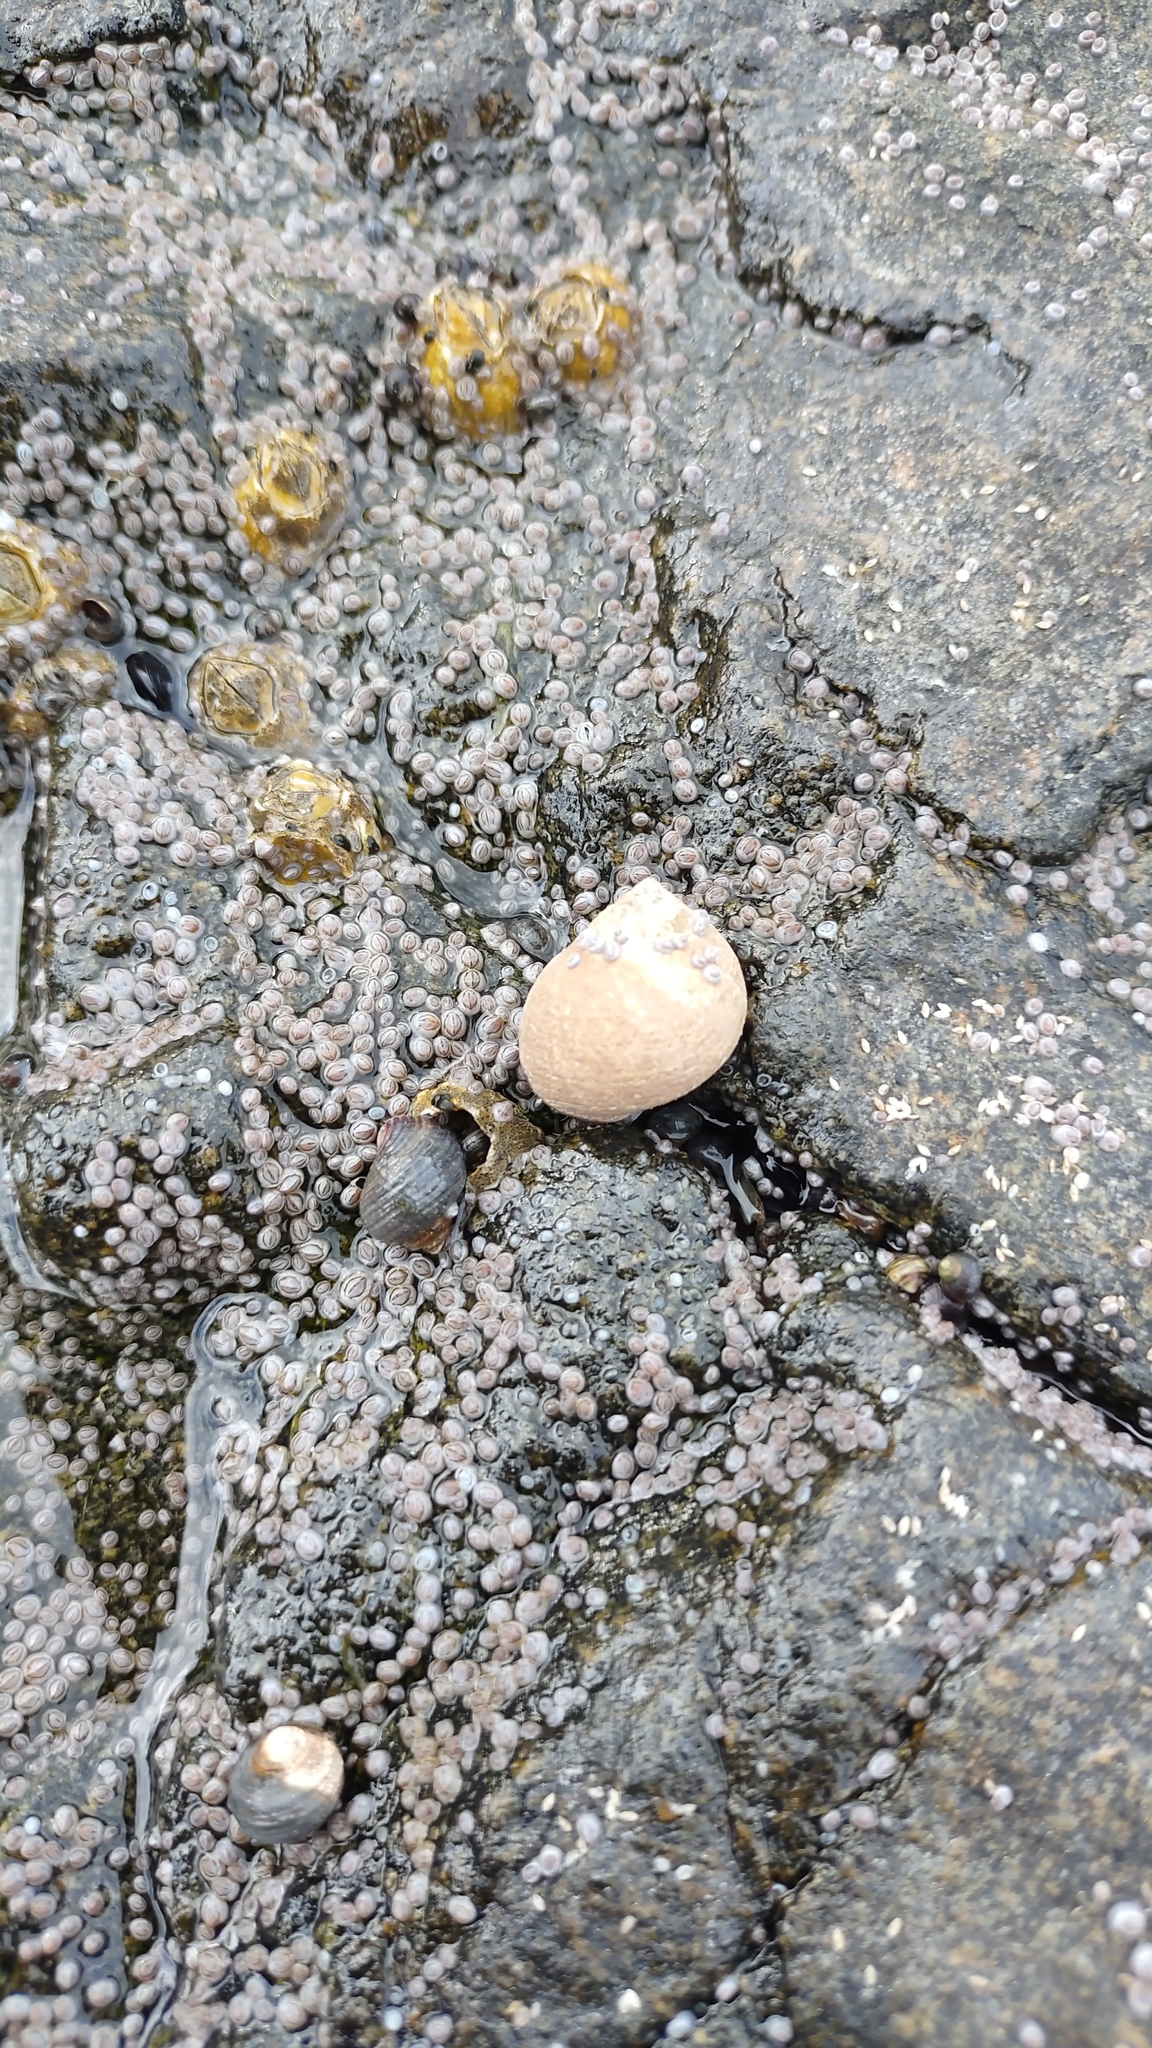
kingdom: Animalia
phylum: Mollusca
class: Gastropoda
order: Littorinimorpha
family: Littorinidae
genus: Littorina
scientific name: Littorina littorea
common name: Common periwinkle
